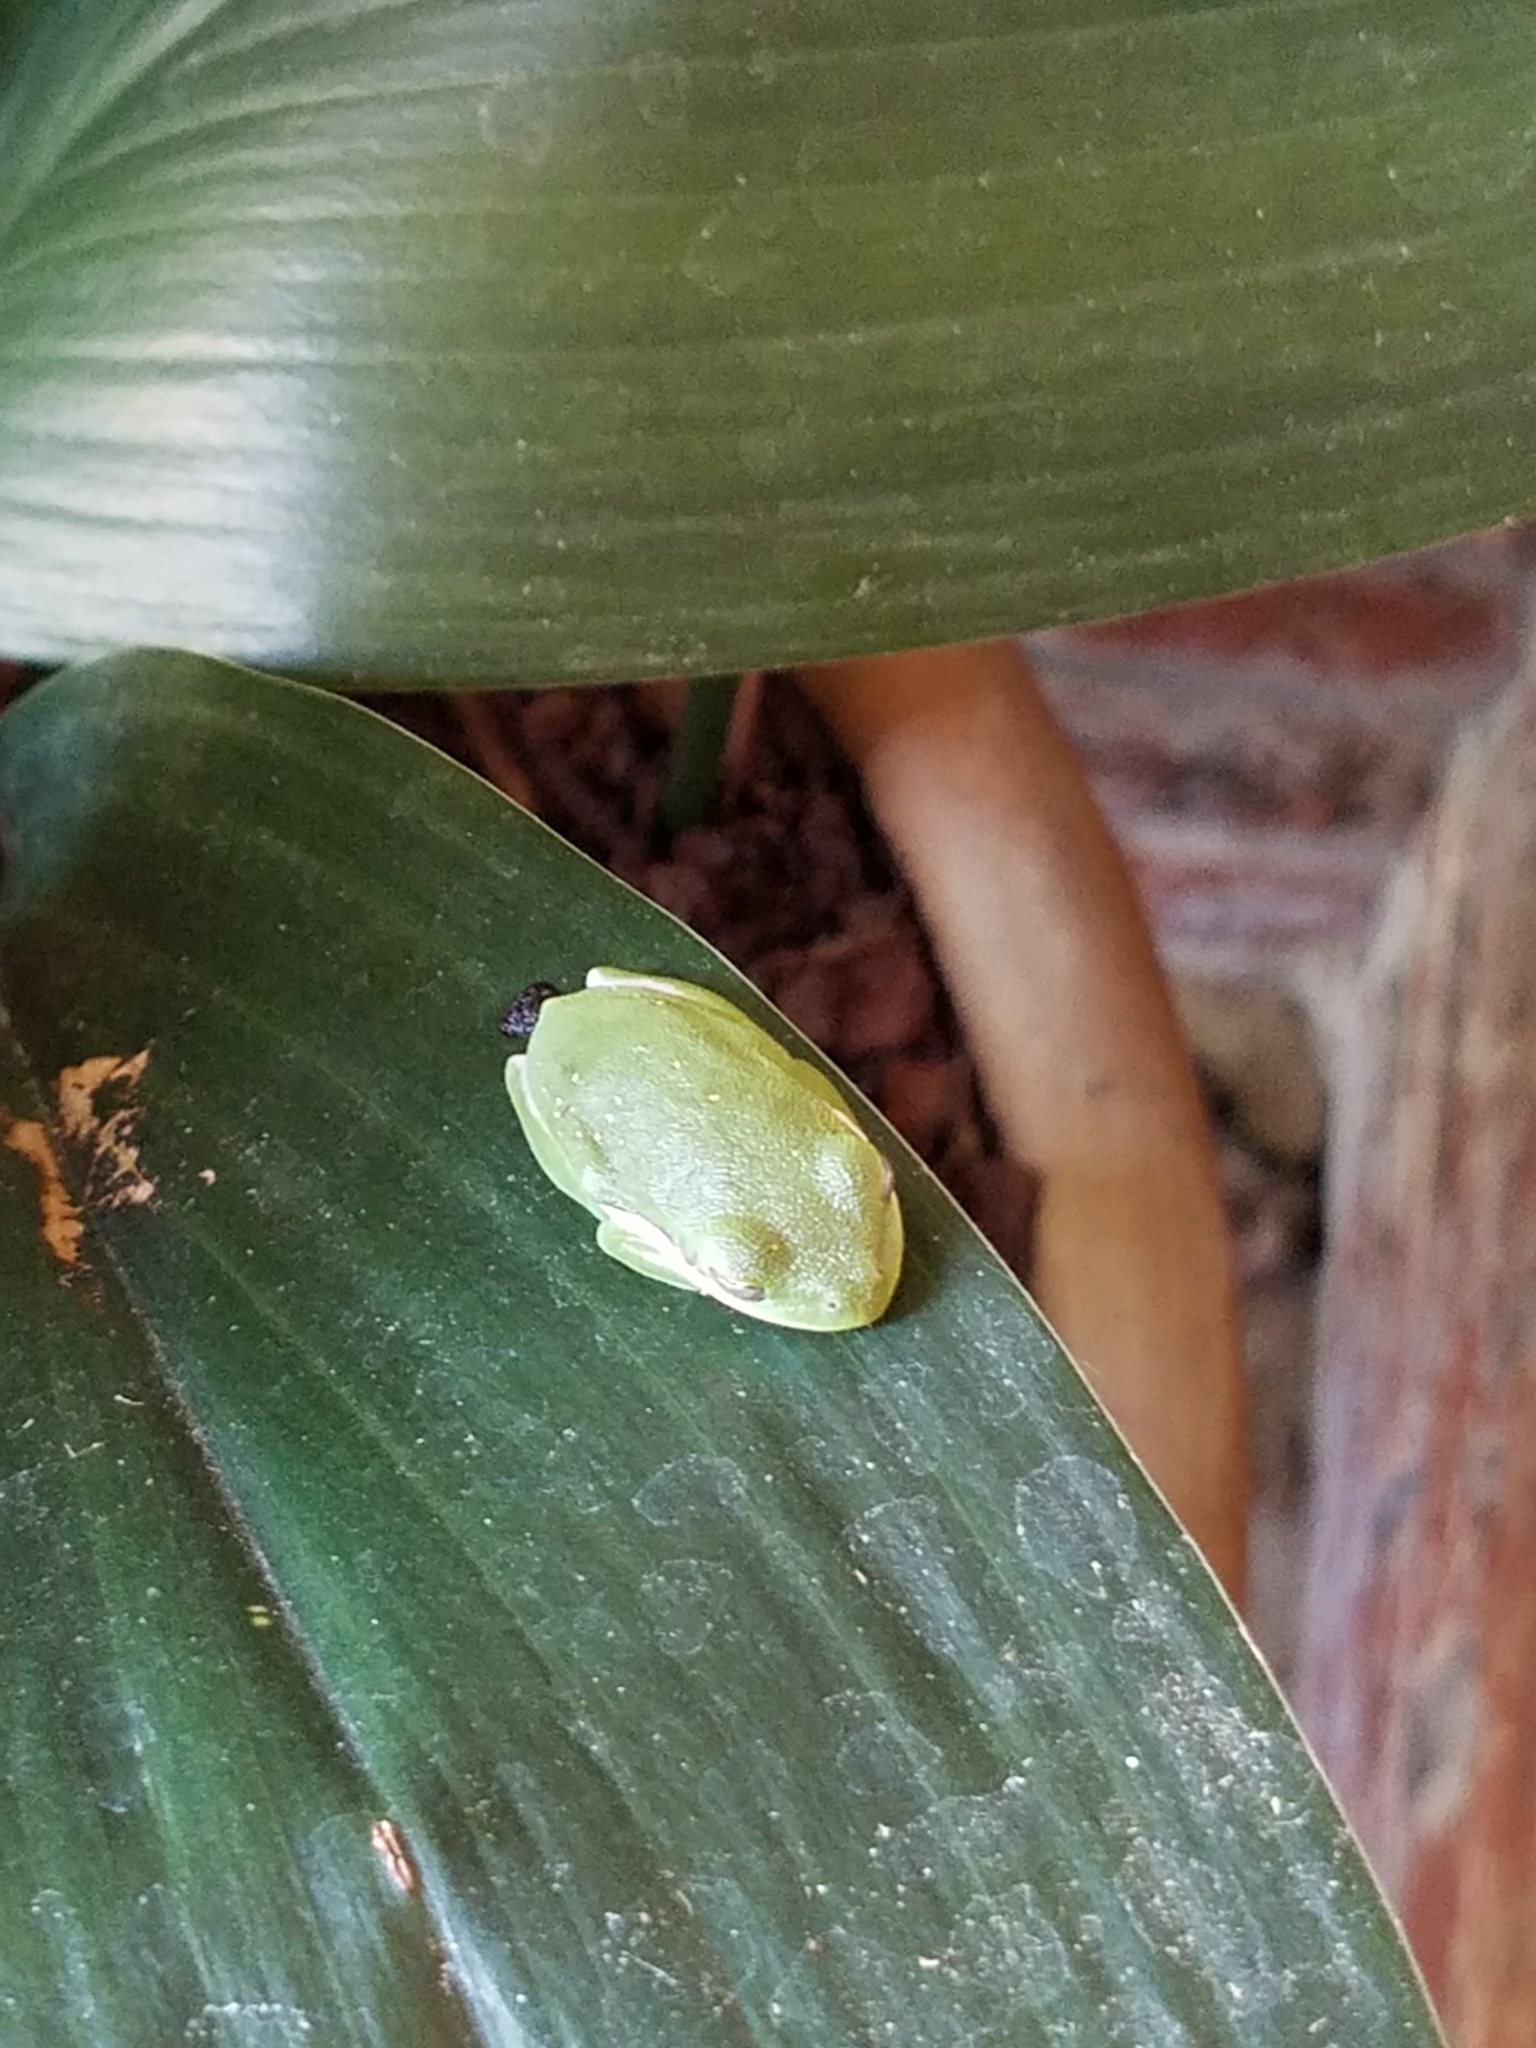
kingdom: Animalia
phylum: Chordata
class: Amphibia
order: Anura
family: Hylidae
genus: Dryophytes
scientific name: Dryophytes cinereus
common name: Green treefrog
